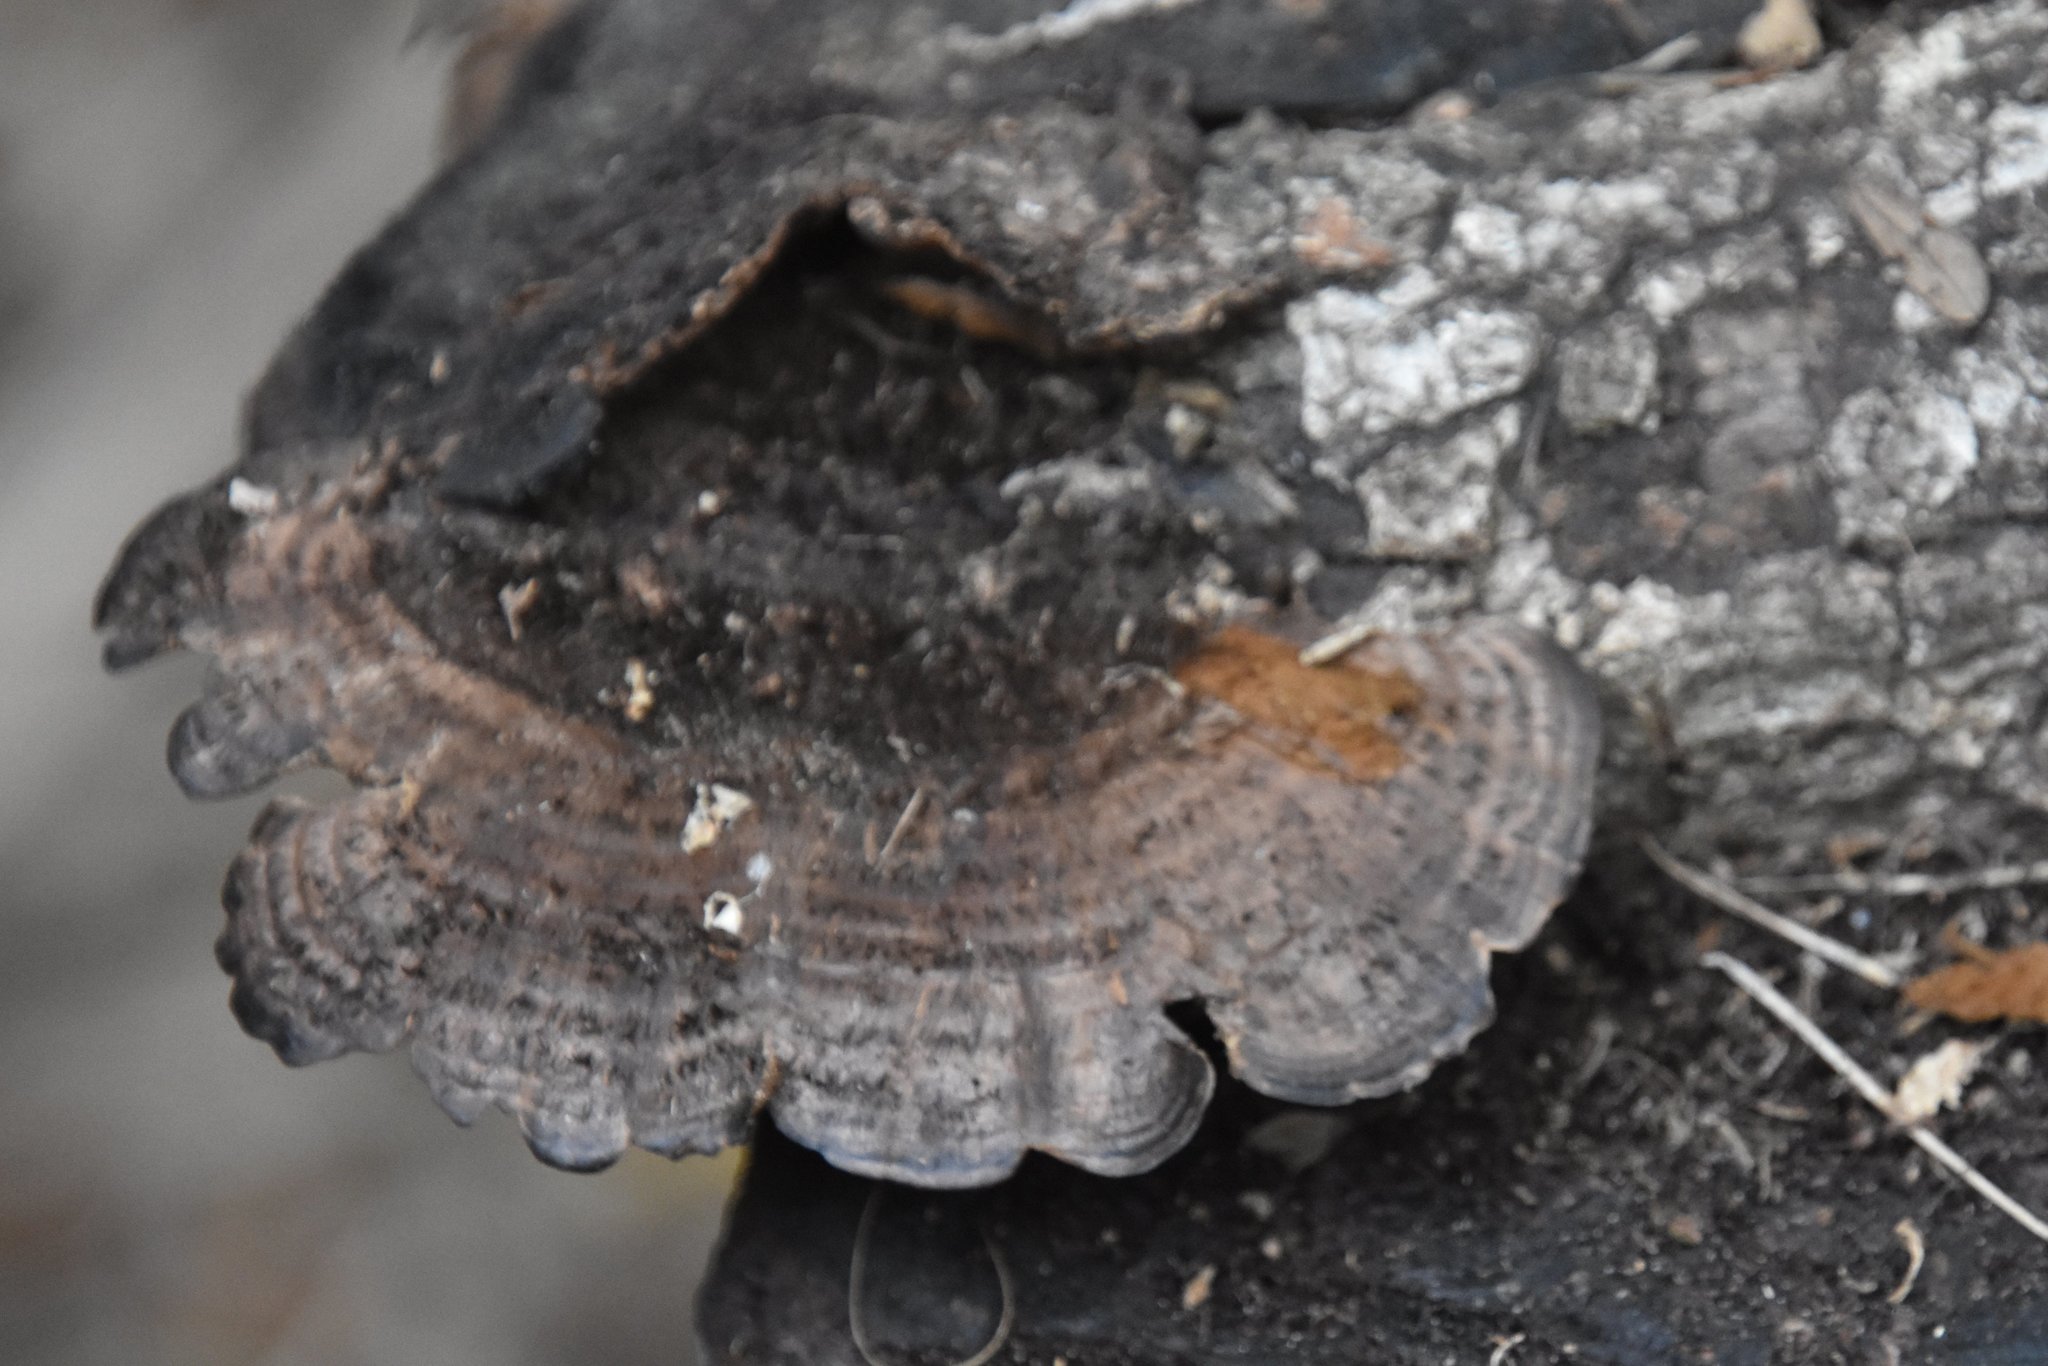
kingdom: Fungi
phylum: Basidiomycota
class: Agaricomycetes
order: Polyporales
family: Cerrenaceae
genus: Cerrena
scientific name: Cerrena hydnoides
